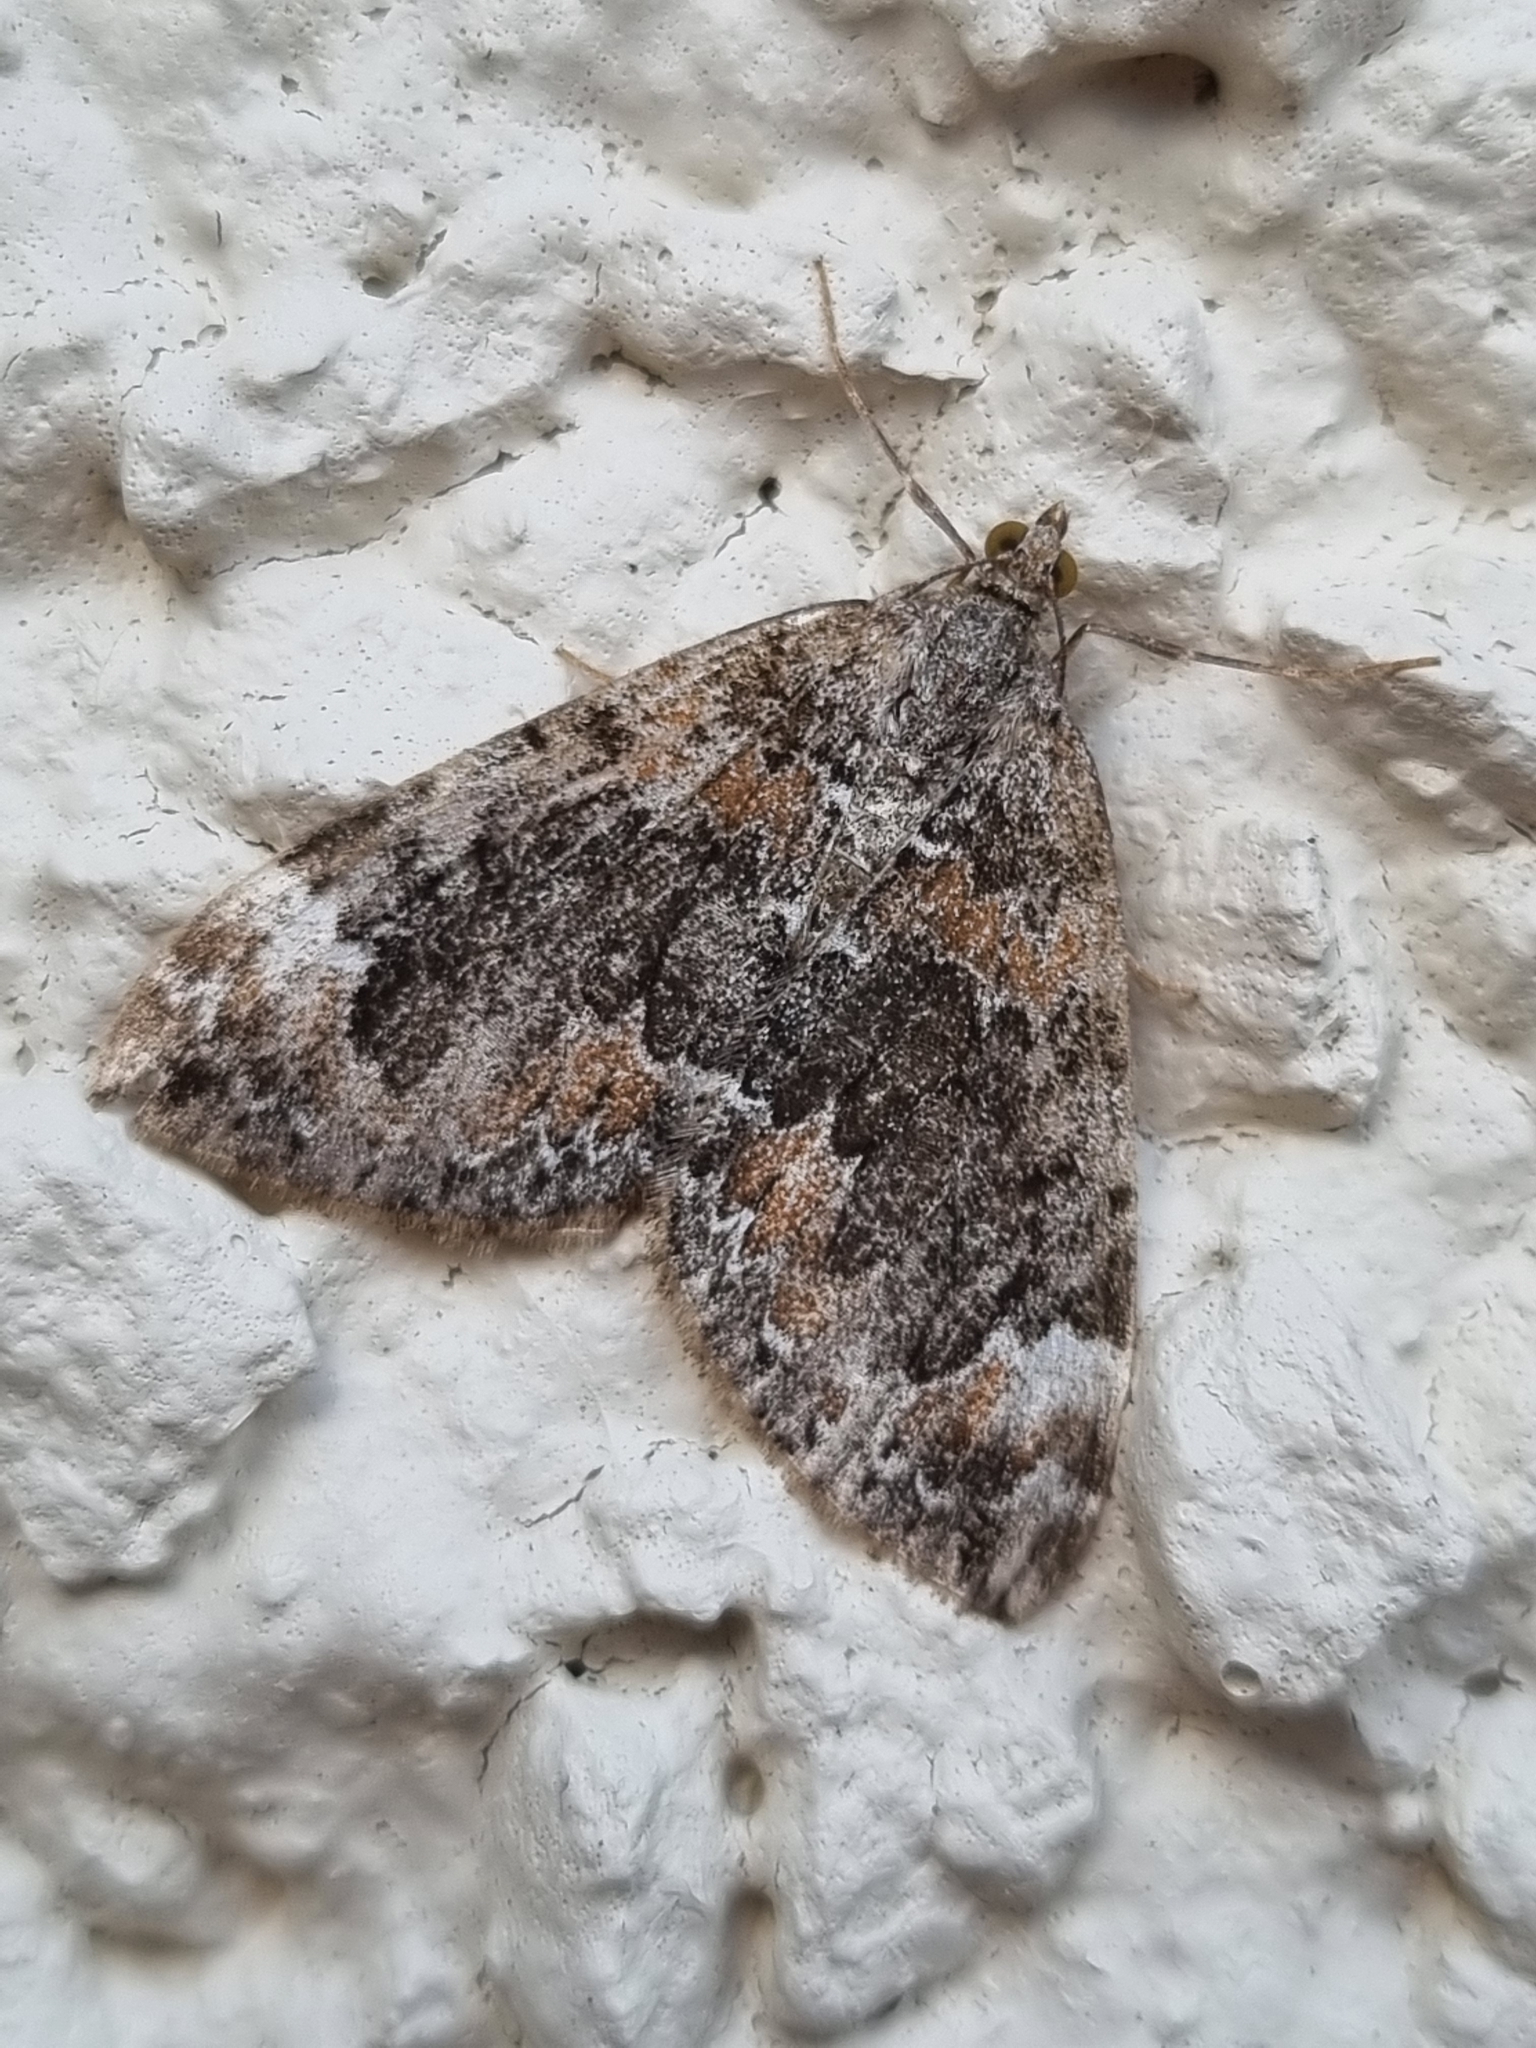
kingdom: Animalia
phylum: Arthropoda
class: Insecta
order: Lepidoptera
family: Geometridae
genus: Dysstroma
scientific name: Dysstroma citrata
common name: Dark marbled carpet
